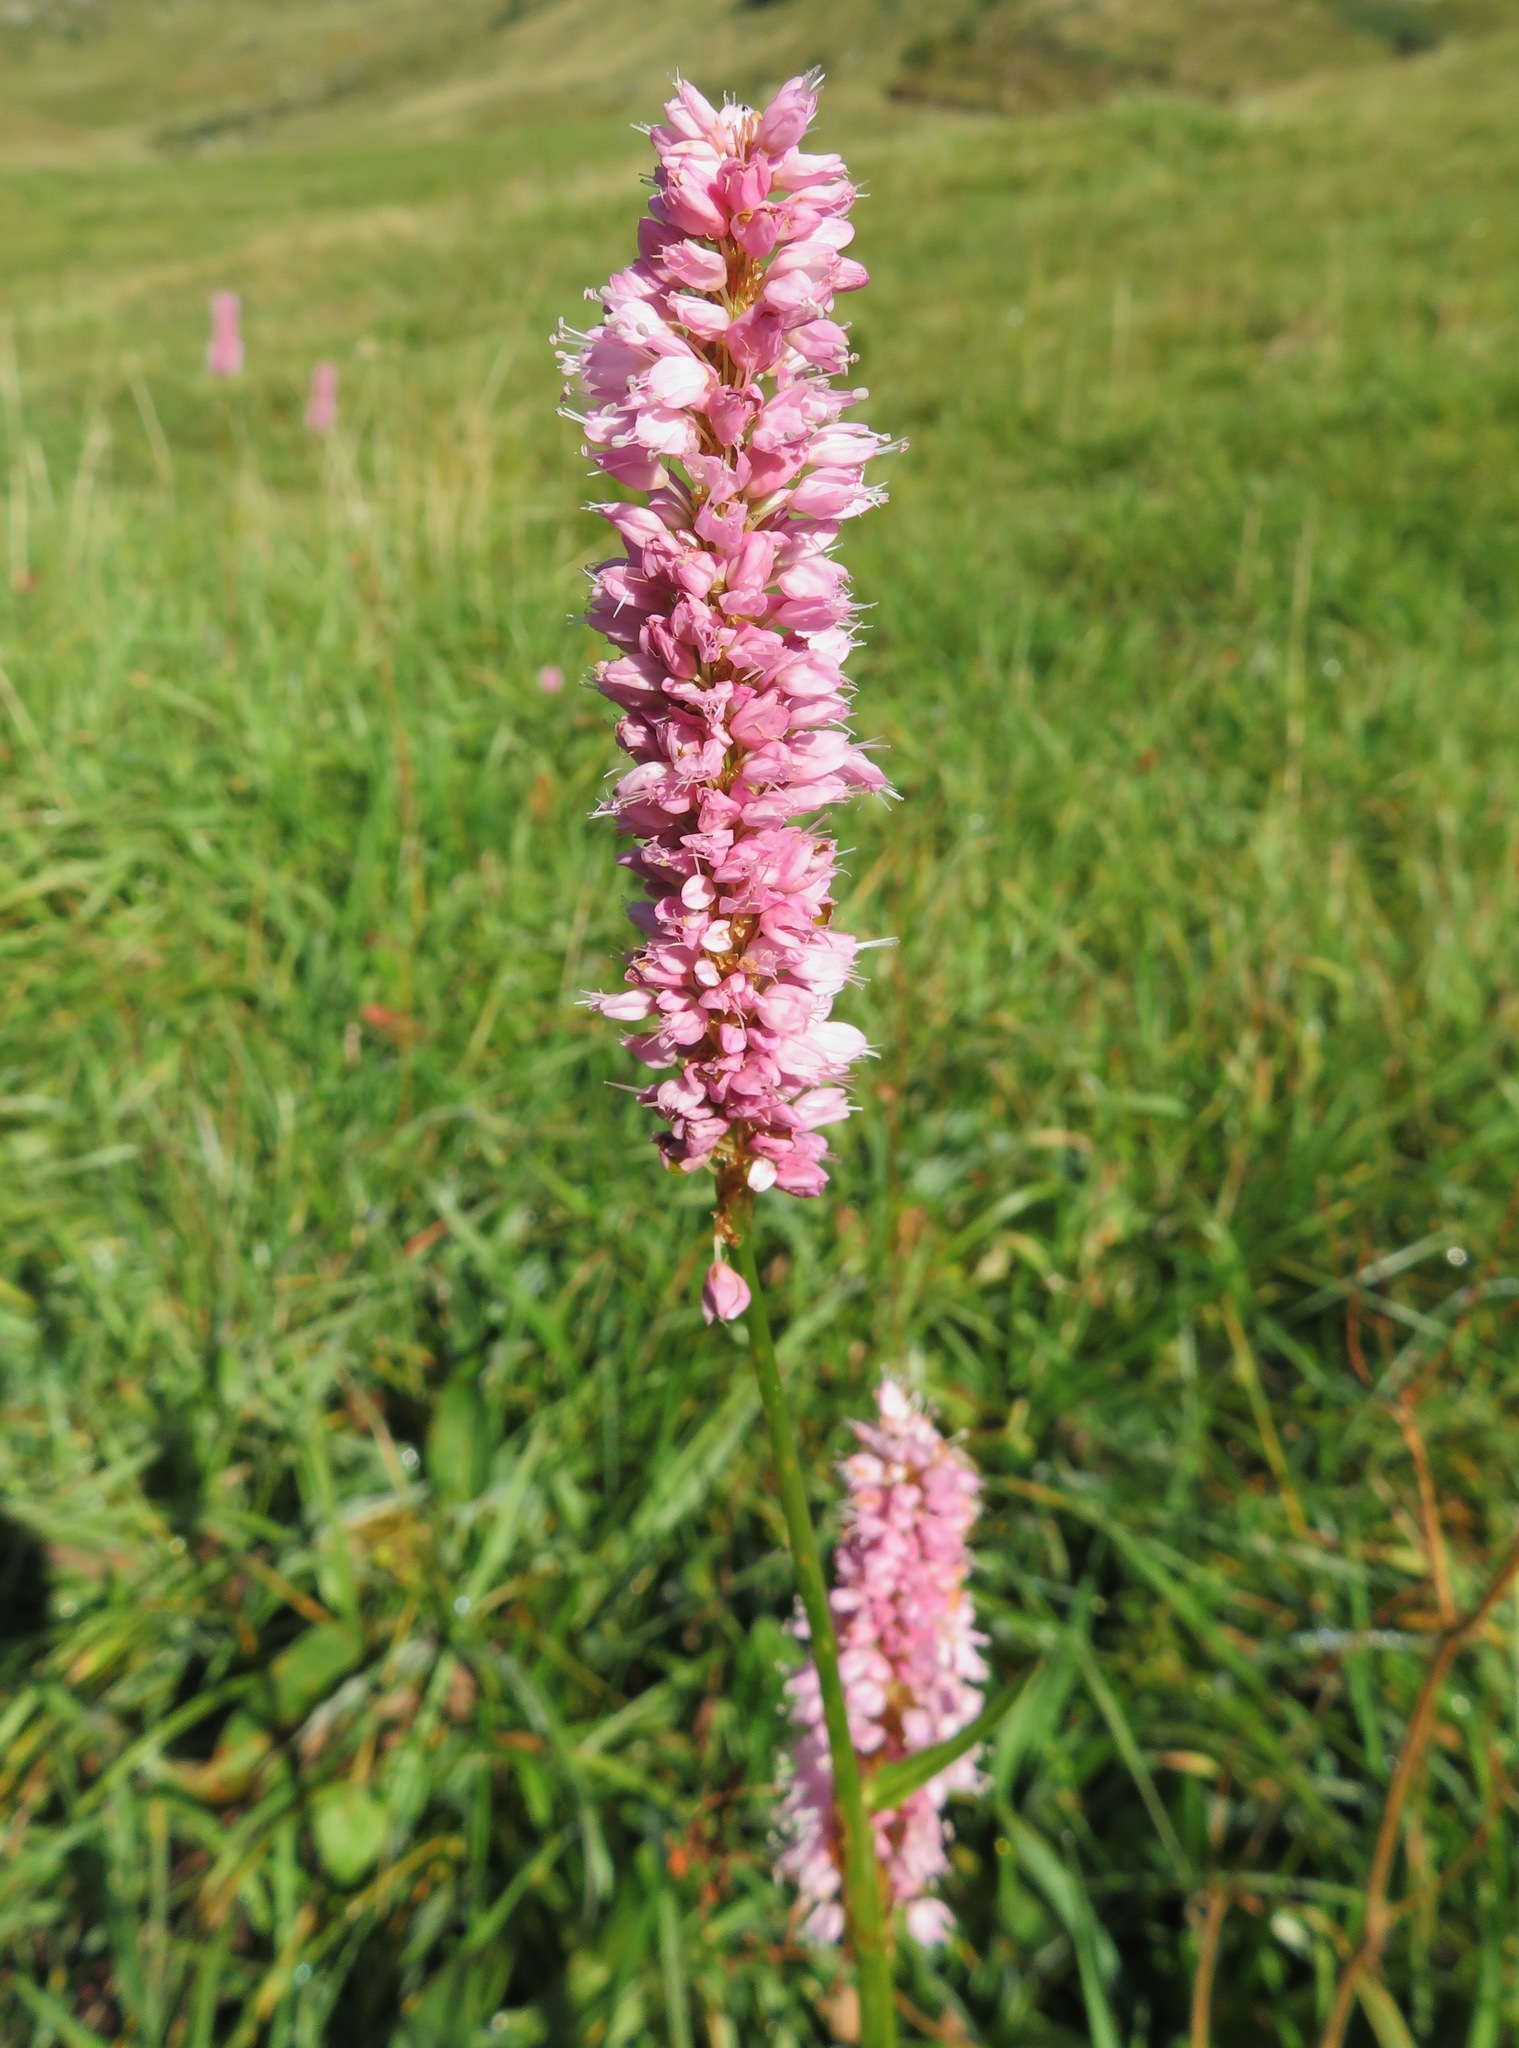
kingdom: Plantae
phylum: Tracheophyta
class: Magnoliopsida
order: Caryophyllales
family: Polygonaceae
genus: Bistorta
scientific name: Bistorta officinalis
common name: Common bistort
